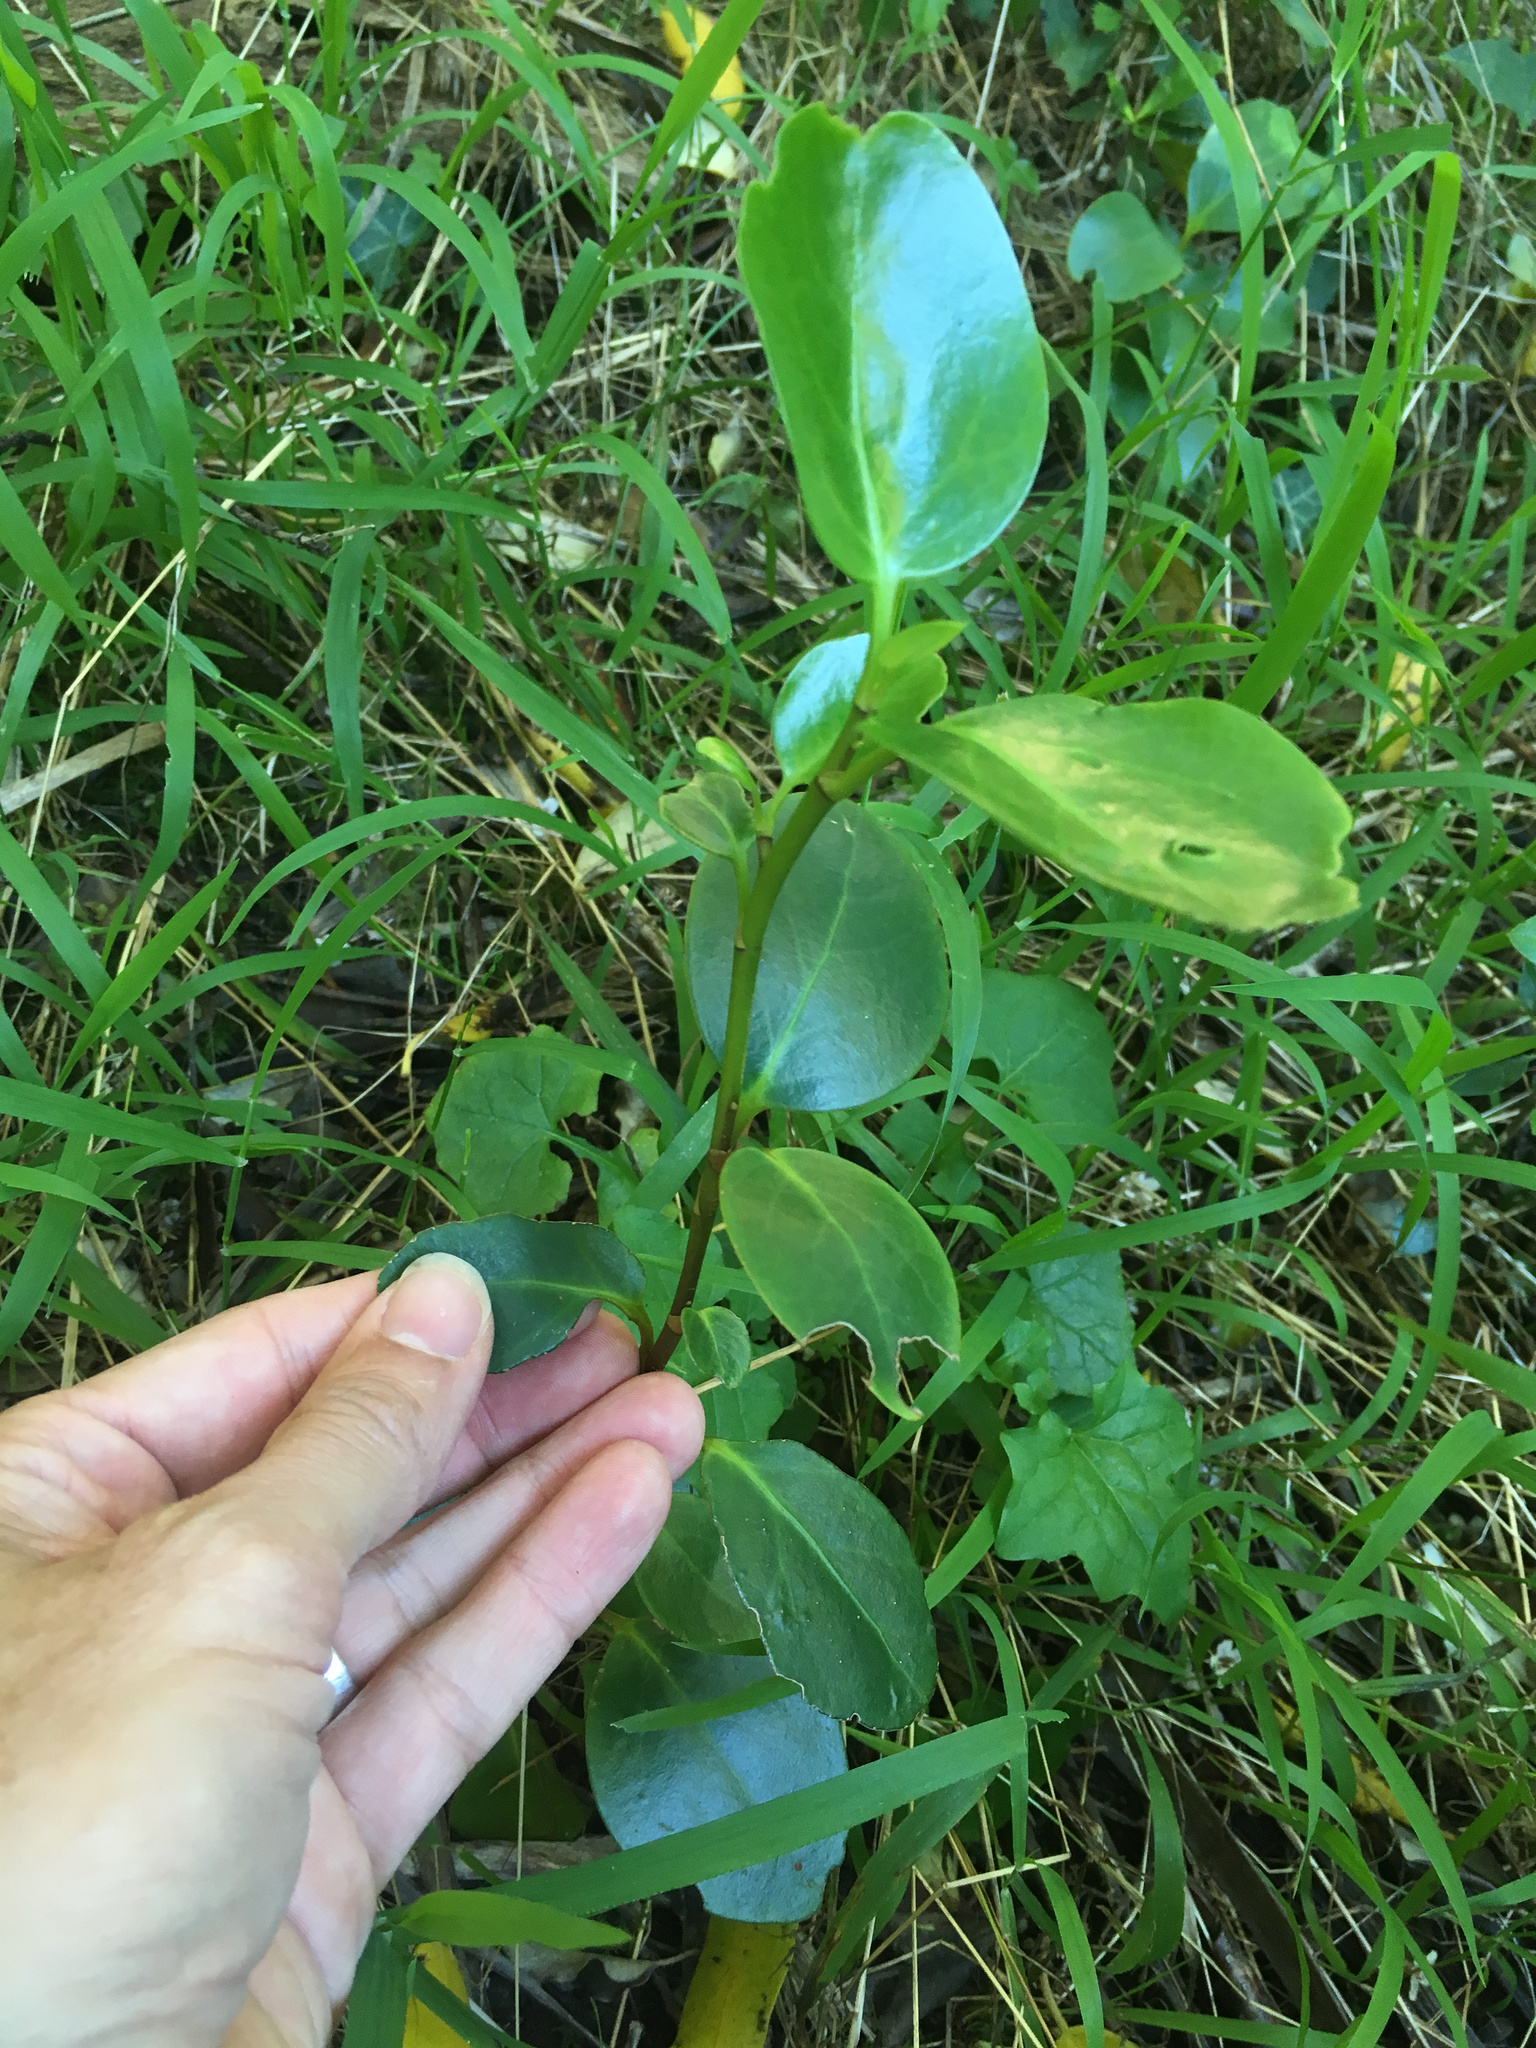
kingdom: Plantae
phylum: Tracheophyta
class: Magnoliopsida
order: Apiales
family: Griseliniaceae
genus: Griselinia
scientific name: Griselinia littoralis
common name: New zealand broadleaf
